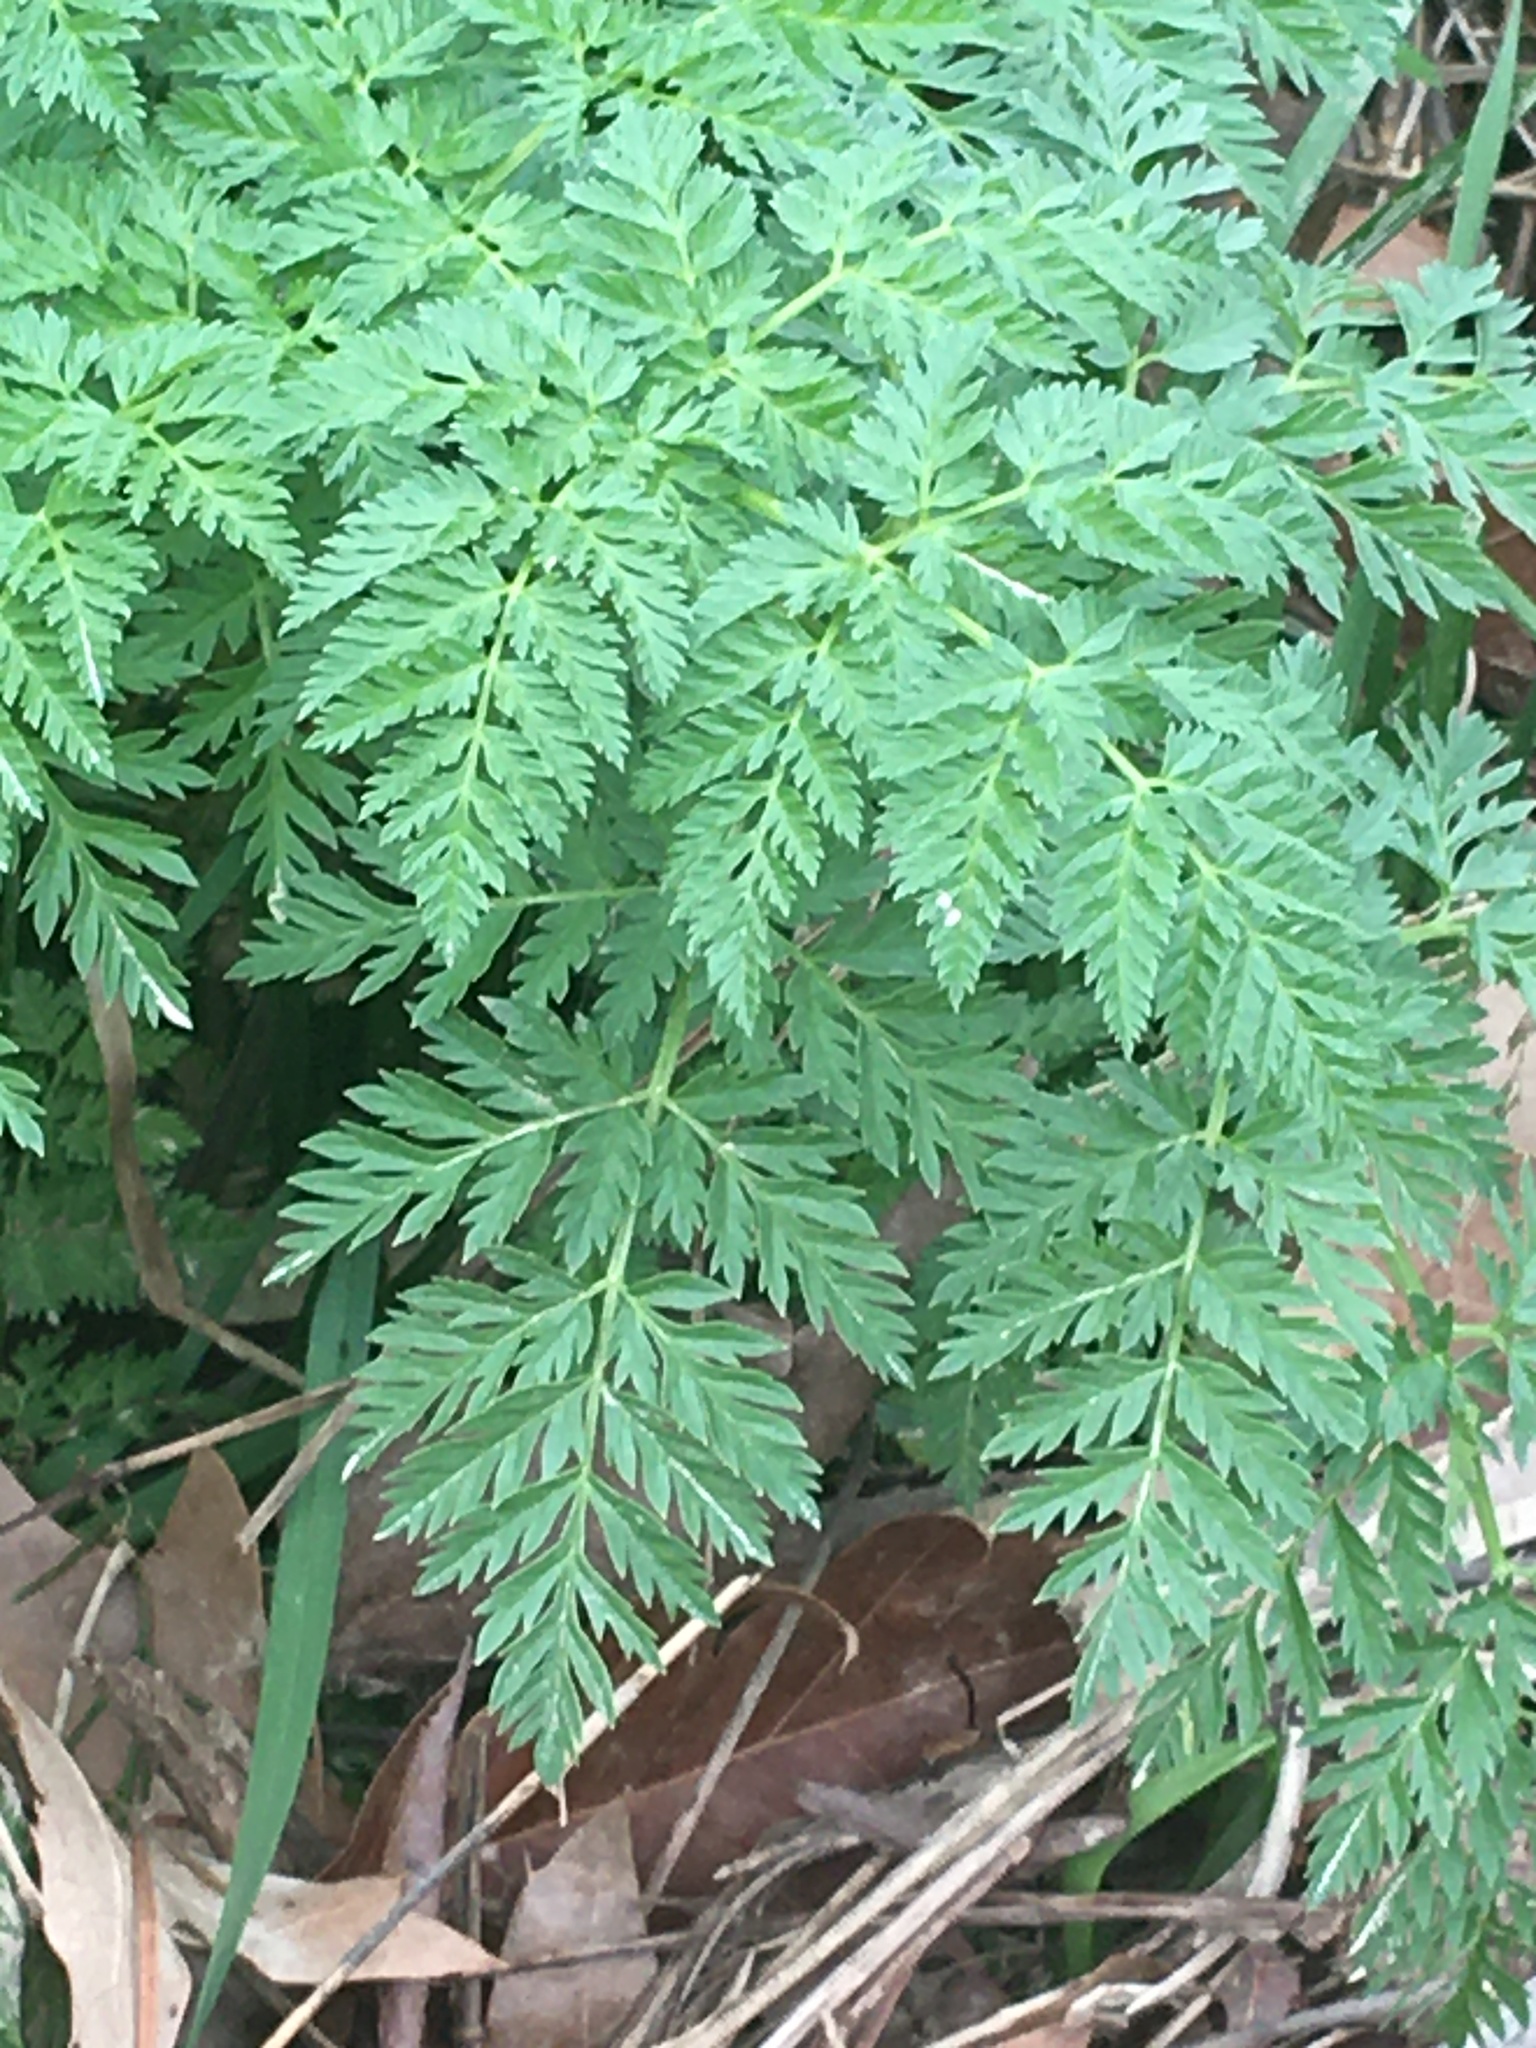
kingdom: Plantae
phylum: Tracheophyta
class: Magnoliopsida
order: Apiales
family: Apiaceae
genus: Conium
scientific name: Conium maculatum
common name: Hemlock
